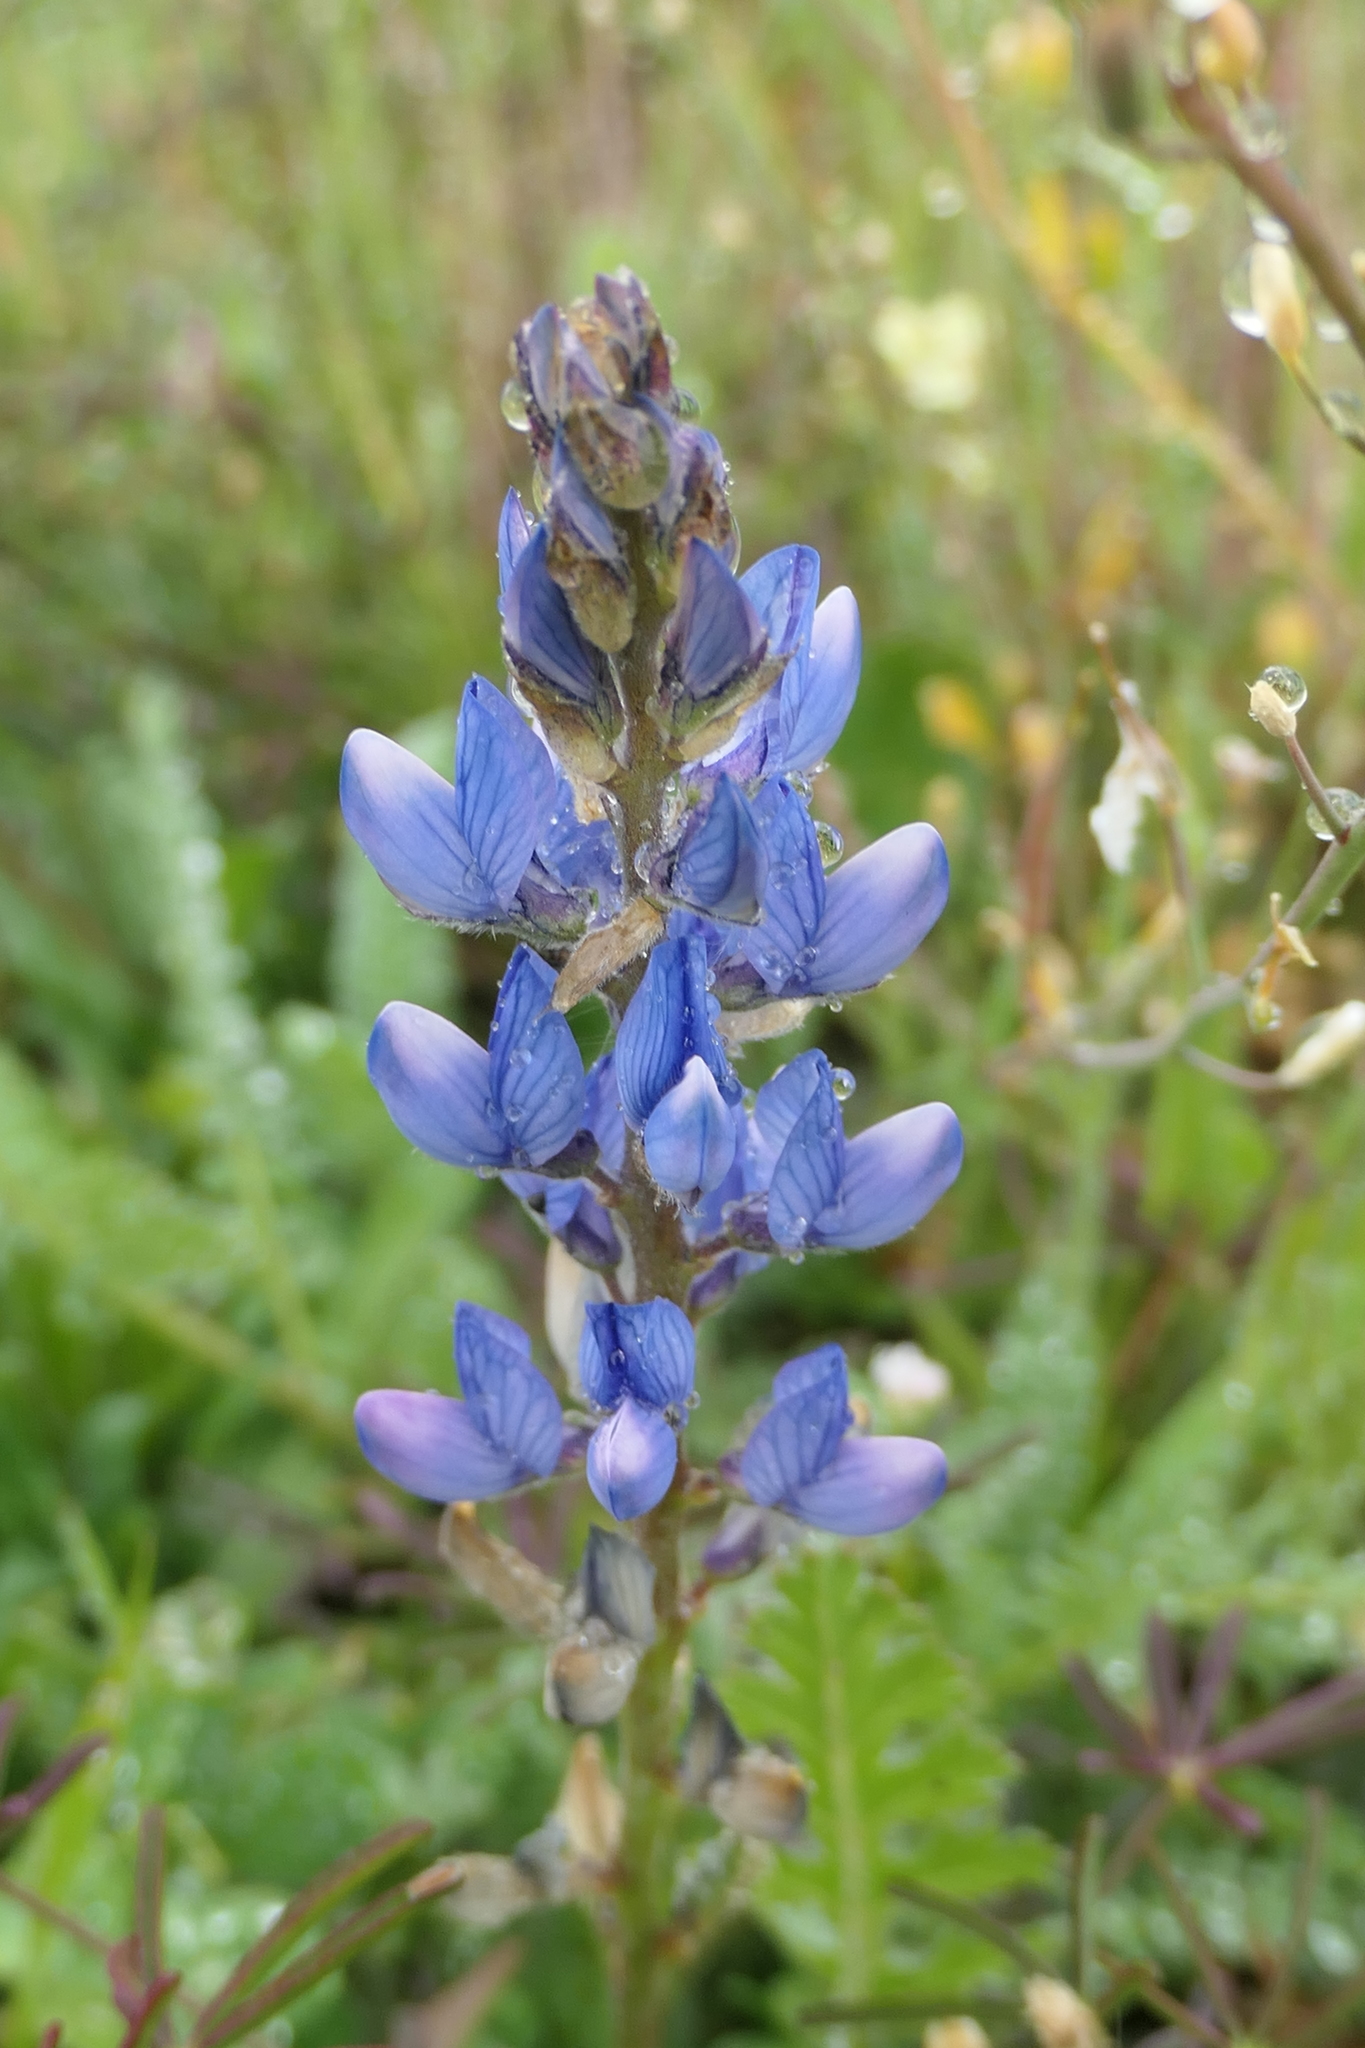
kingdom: Plantae
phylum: Tracheophyta
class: Magnoliopsida
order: Fabales
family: Fabaceae
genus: Lupinus
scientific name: Lupinus angustifolius
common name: Narrow-leaved lupin
